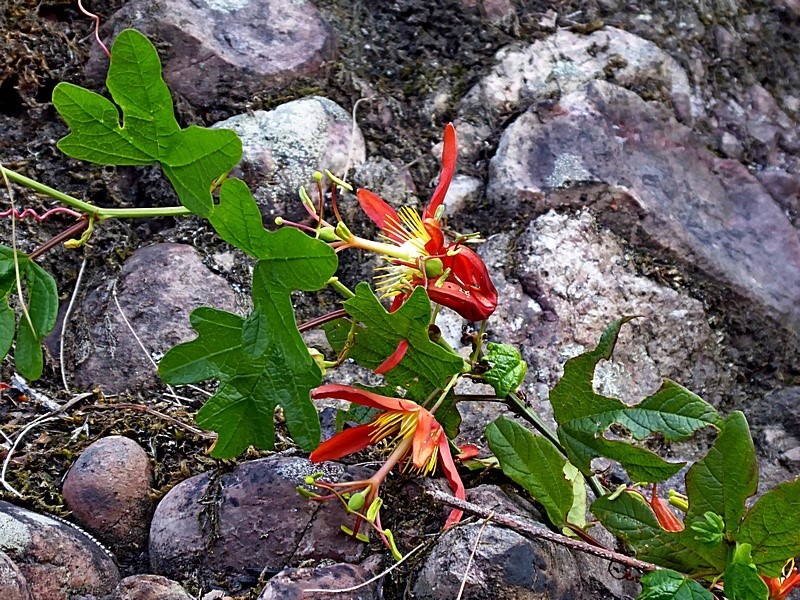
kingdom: Plantae
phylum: Tracheophyta
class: Magnoliopsida
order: Malpighiales
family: Passifloraceae
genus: Passiflora
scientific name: Passiflora cinnabarina
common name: Red passionflower
